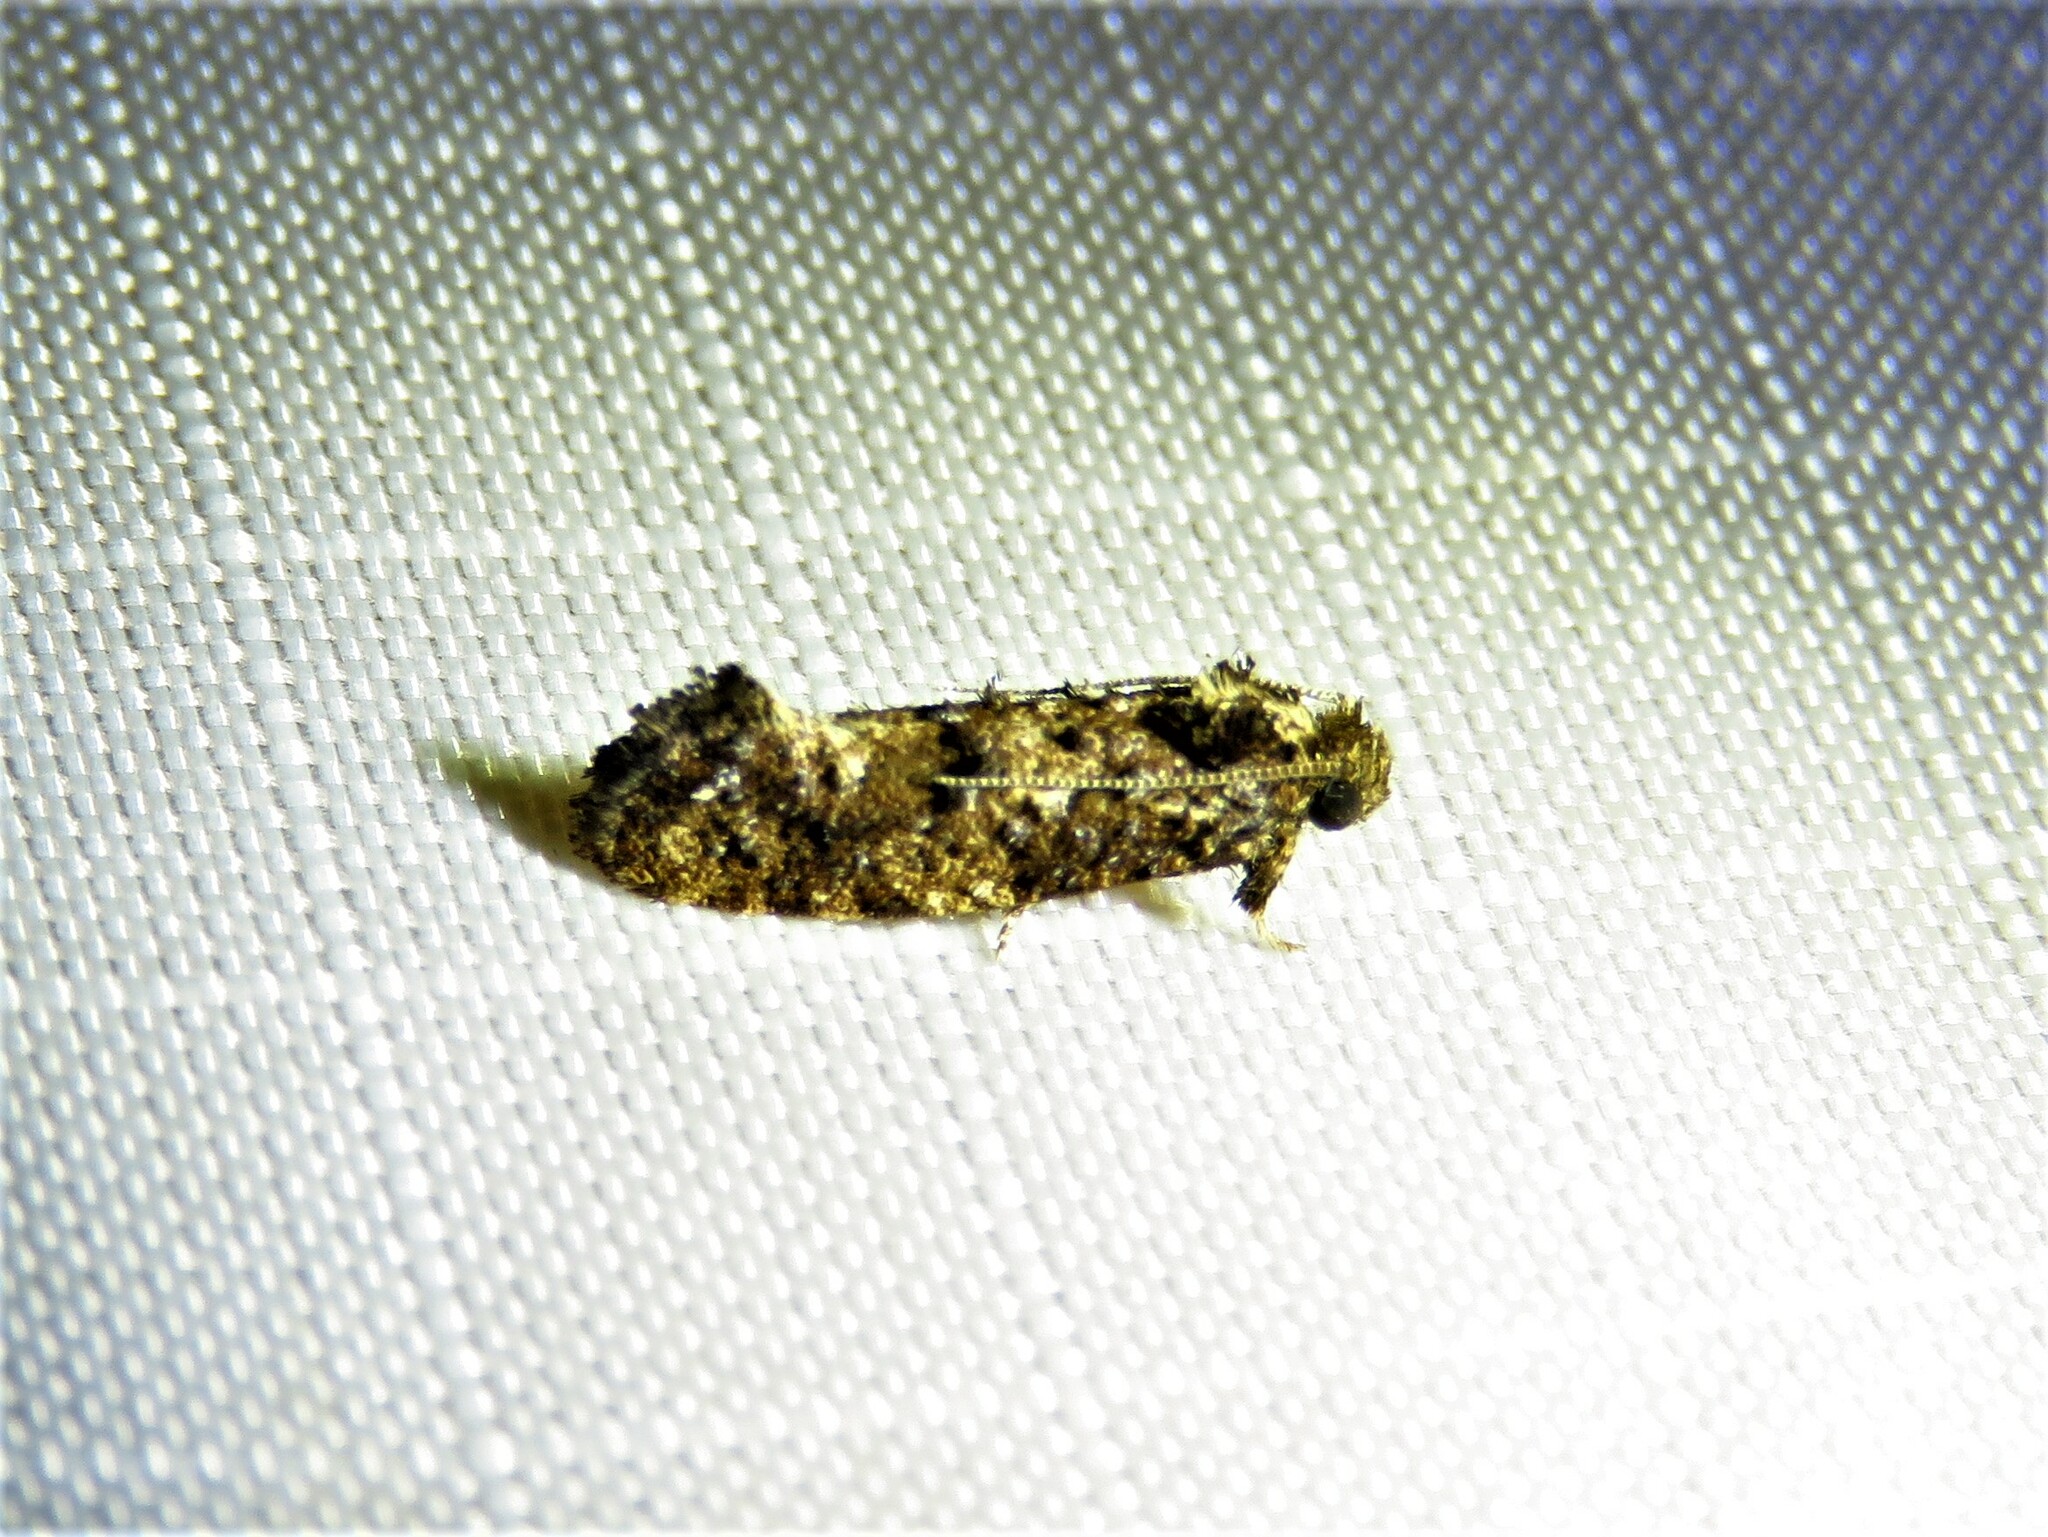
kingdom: Animalia
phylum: Arthropoda
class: Insecta
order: Lepidoptera
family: Tineidae
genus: Acrolophus
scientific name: Acrolophus cressoni
